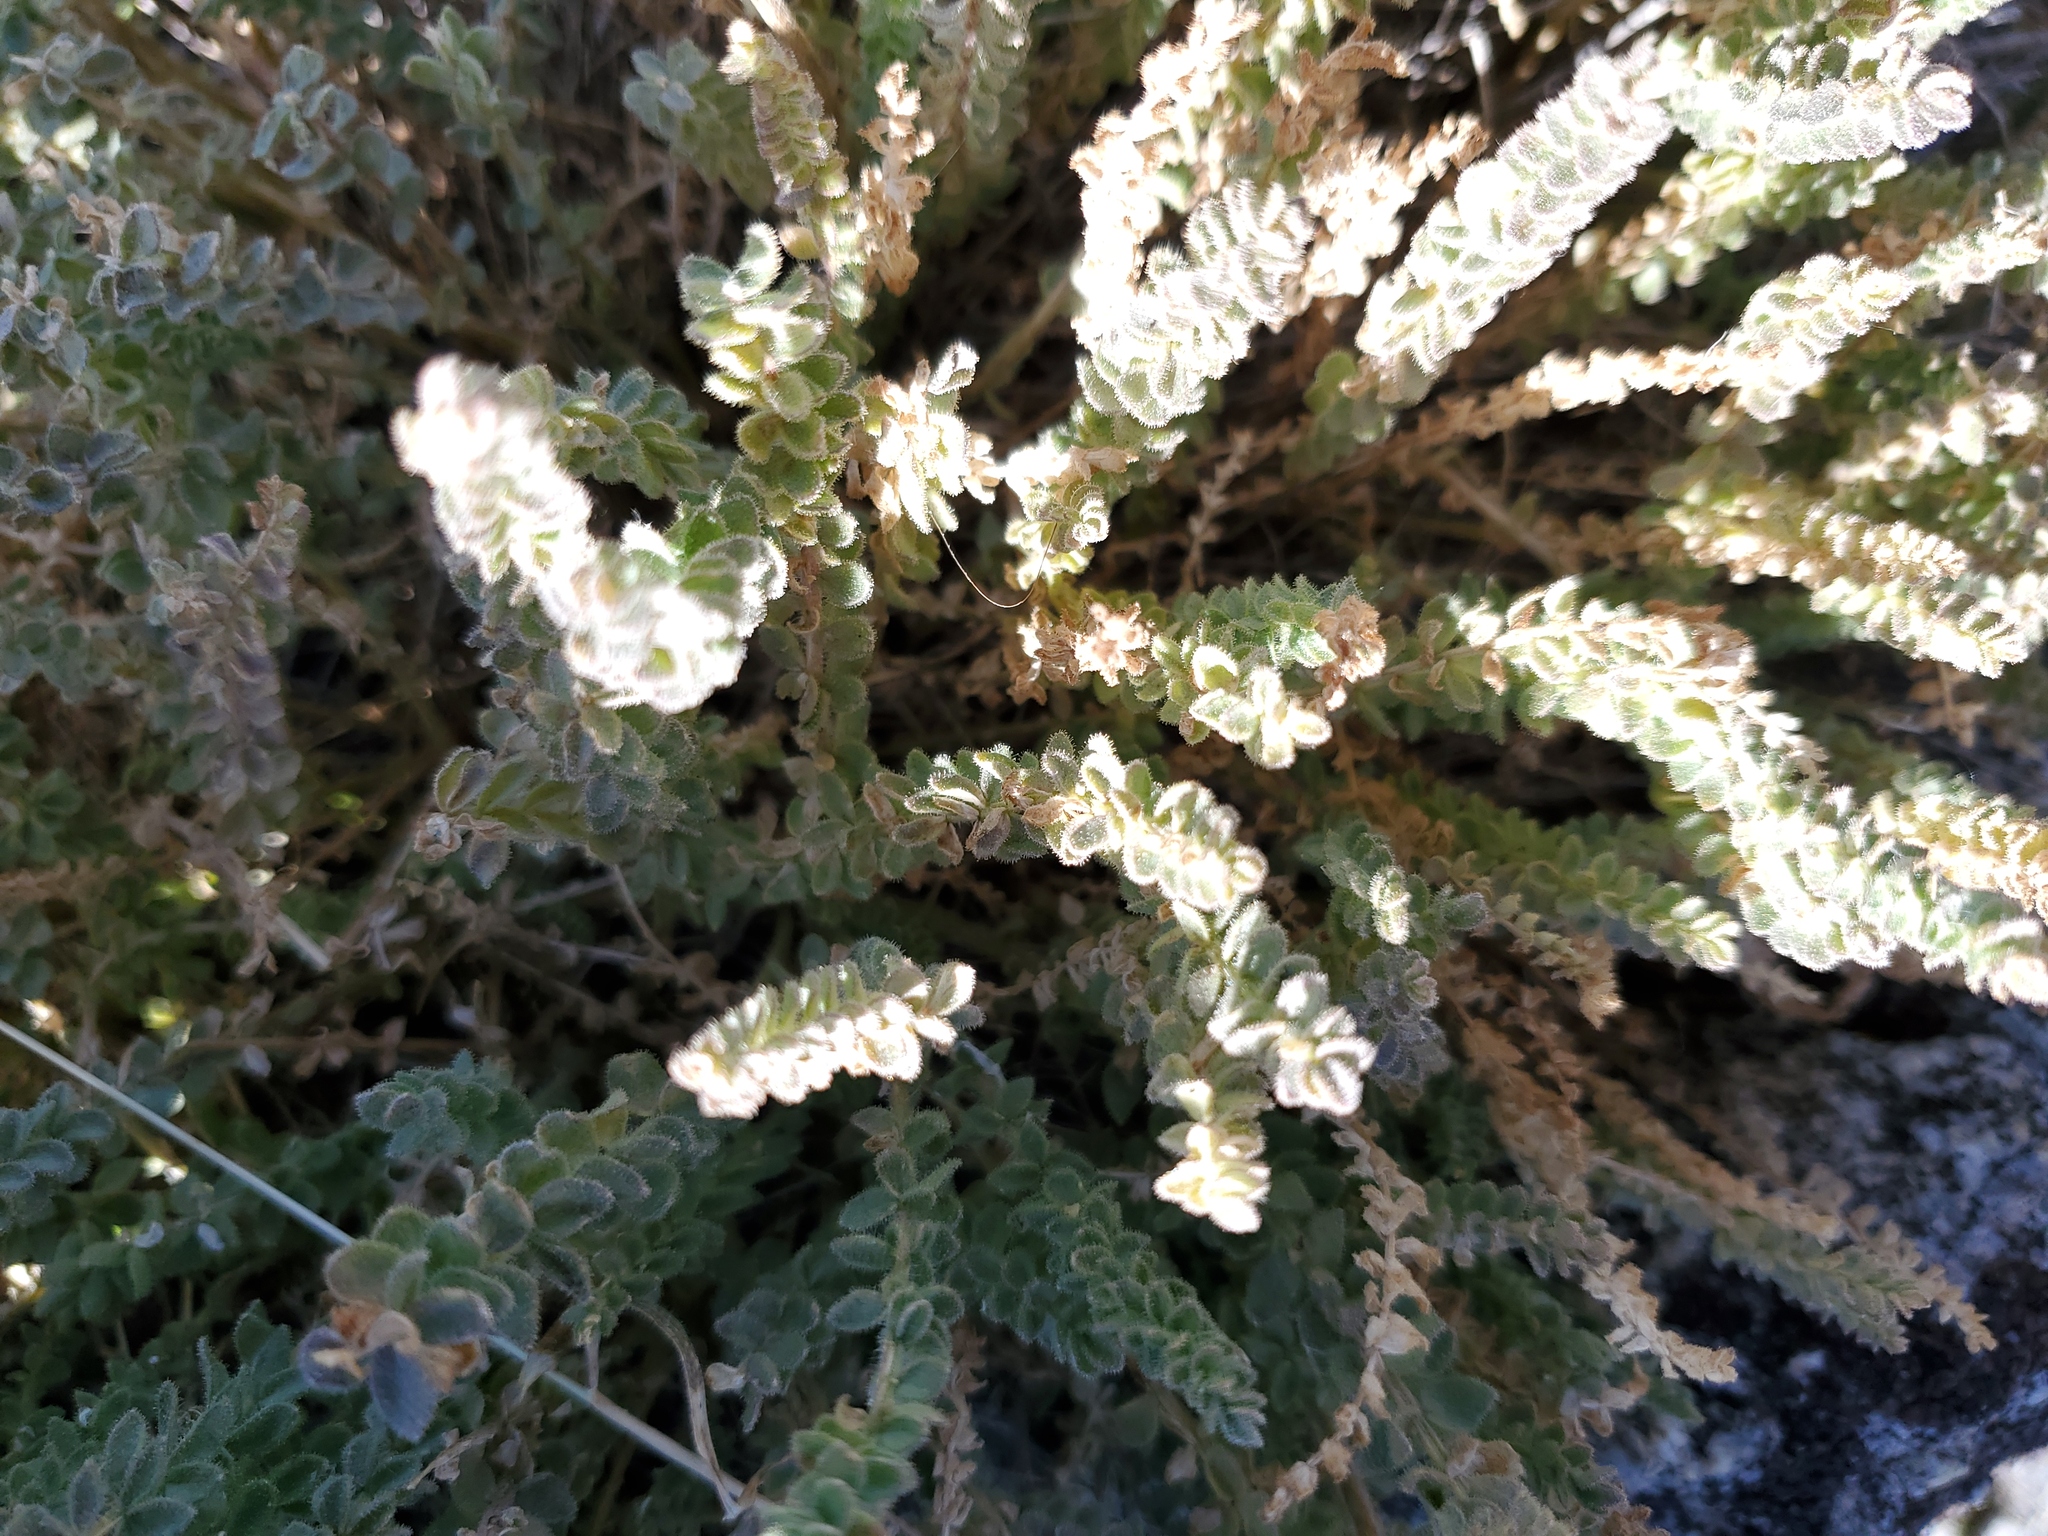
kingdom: Plantae
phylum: Tracheophyta
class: Magnoliopsida
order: Ericales
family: Polemoniaceae
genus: Polemonium
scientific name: Polemonium viscosum
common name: Skunk jacob's-ladder
